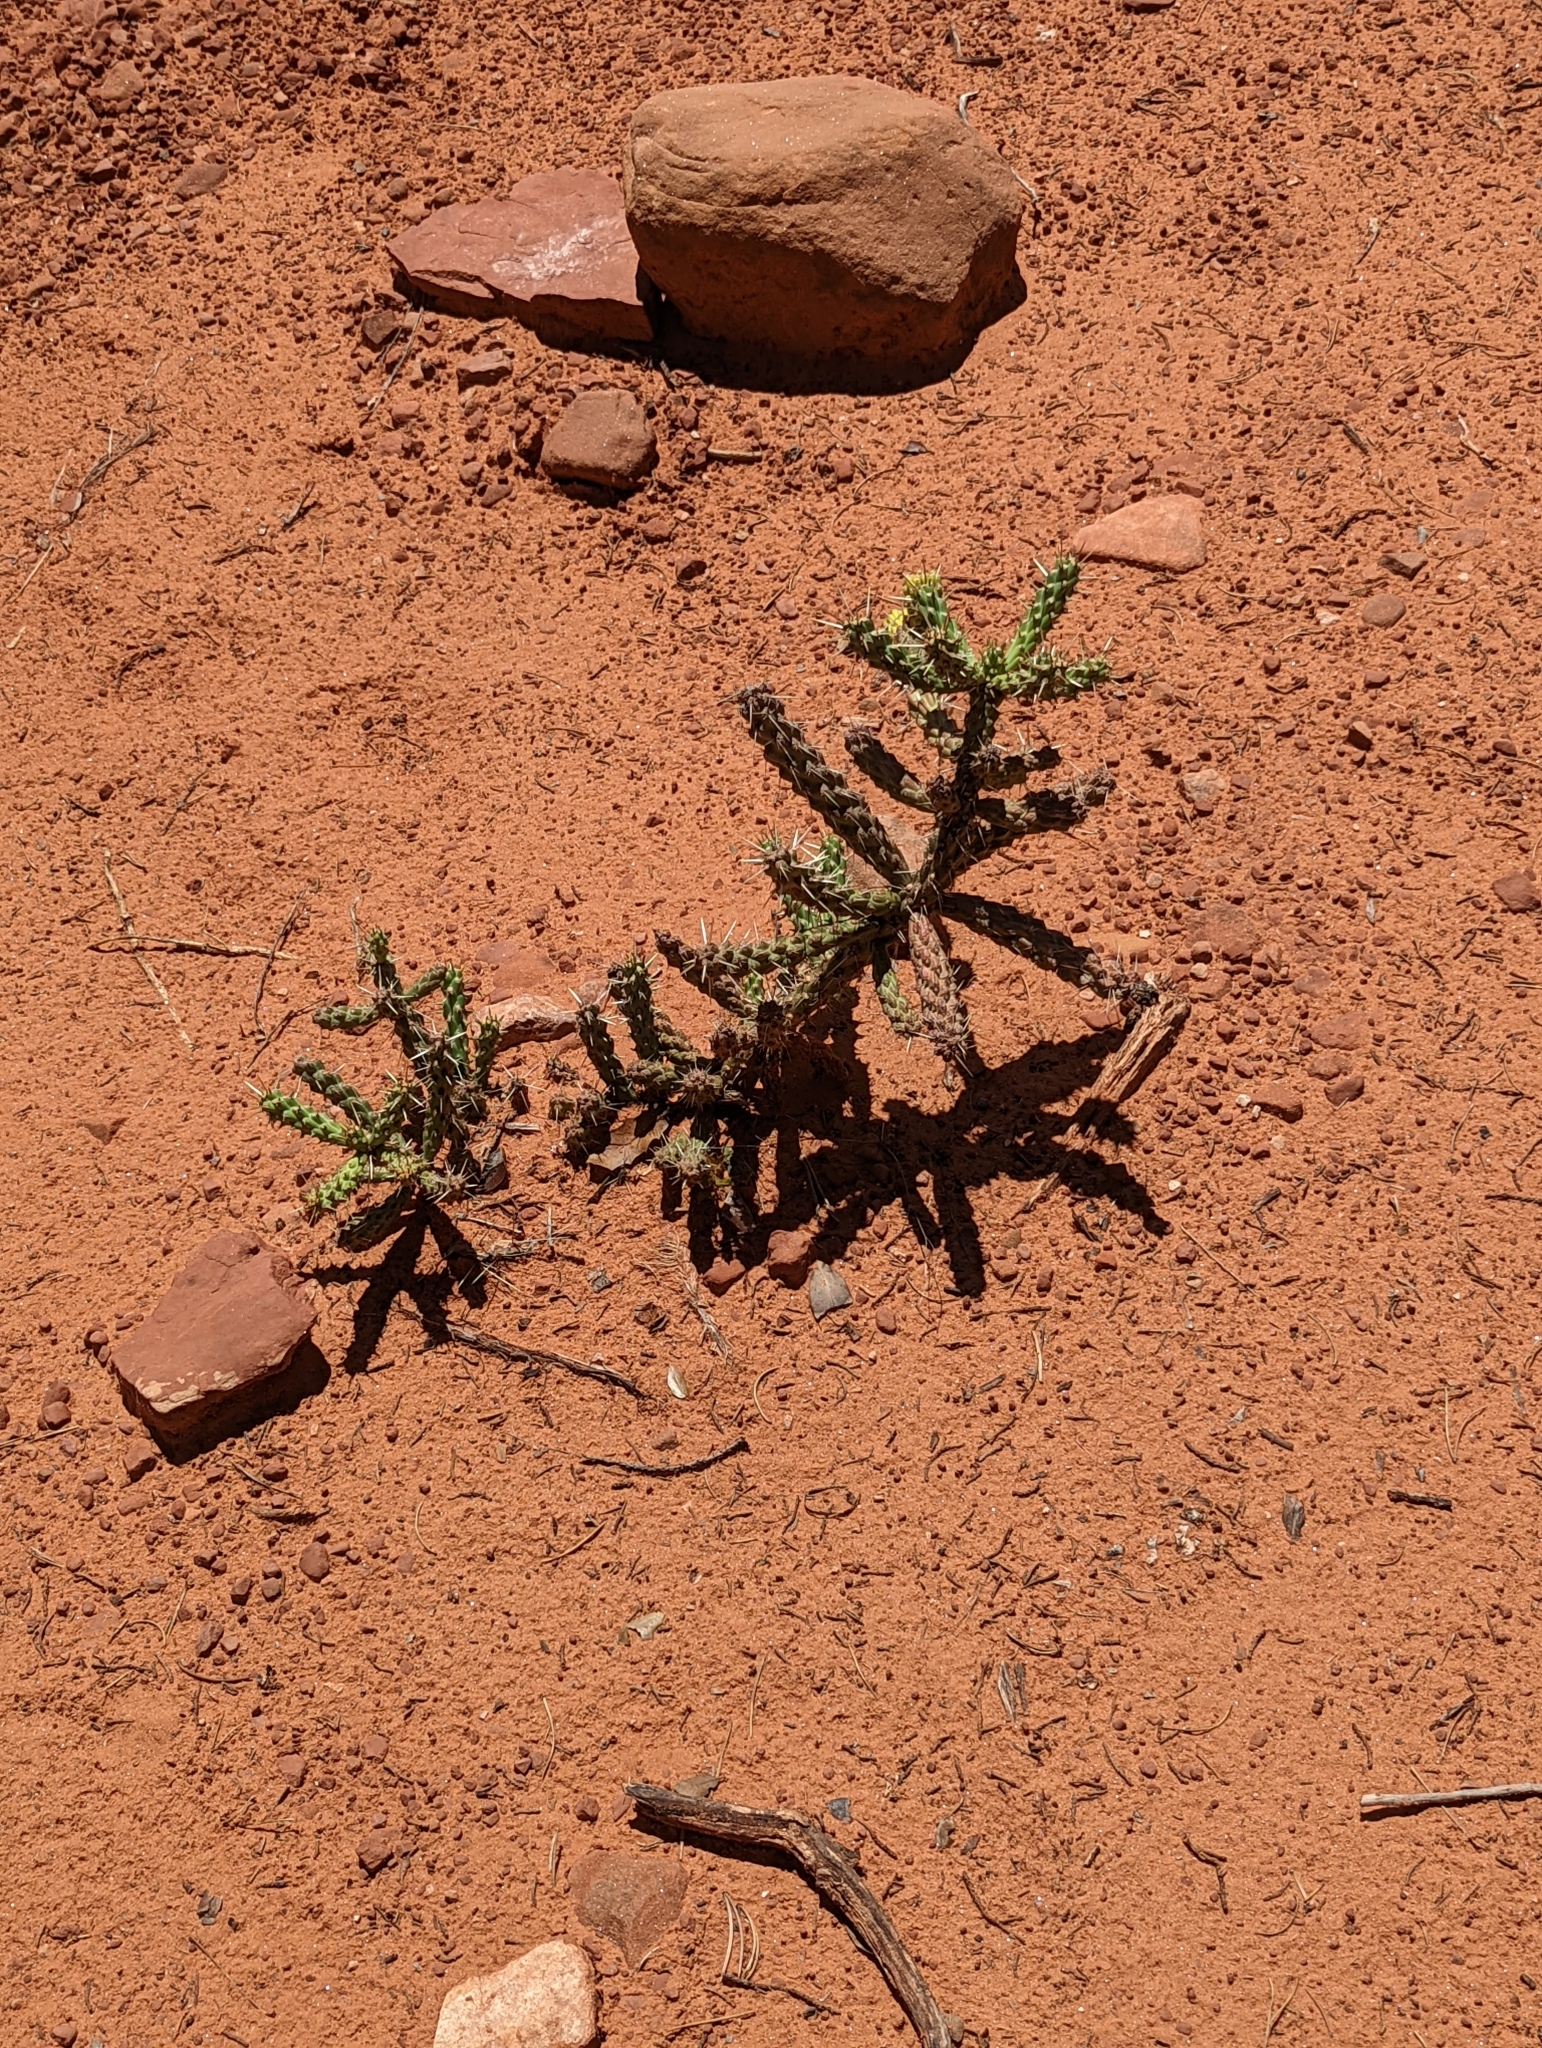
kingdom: Plantae
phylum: Tracheophyta
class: Magnoliopsida
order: Caryophyllales
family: Cactaceae
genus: Cylindropuntia
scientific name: Cylindropuntia whipplei
